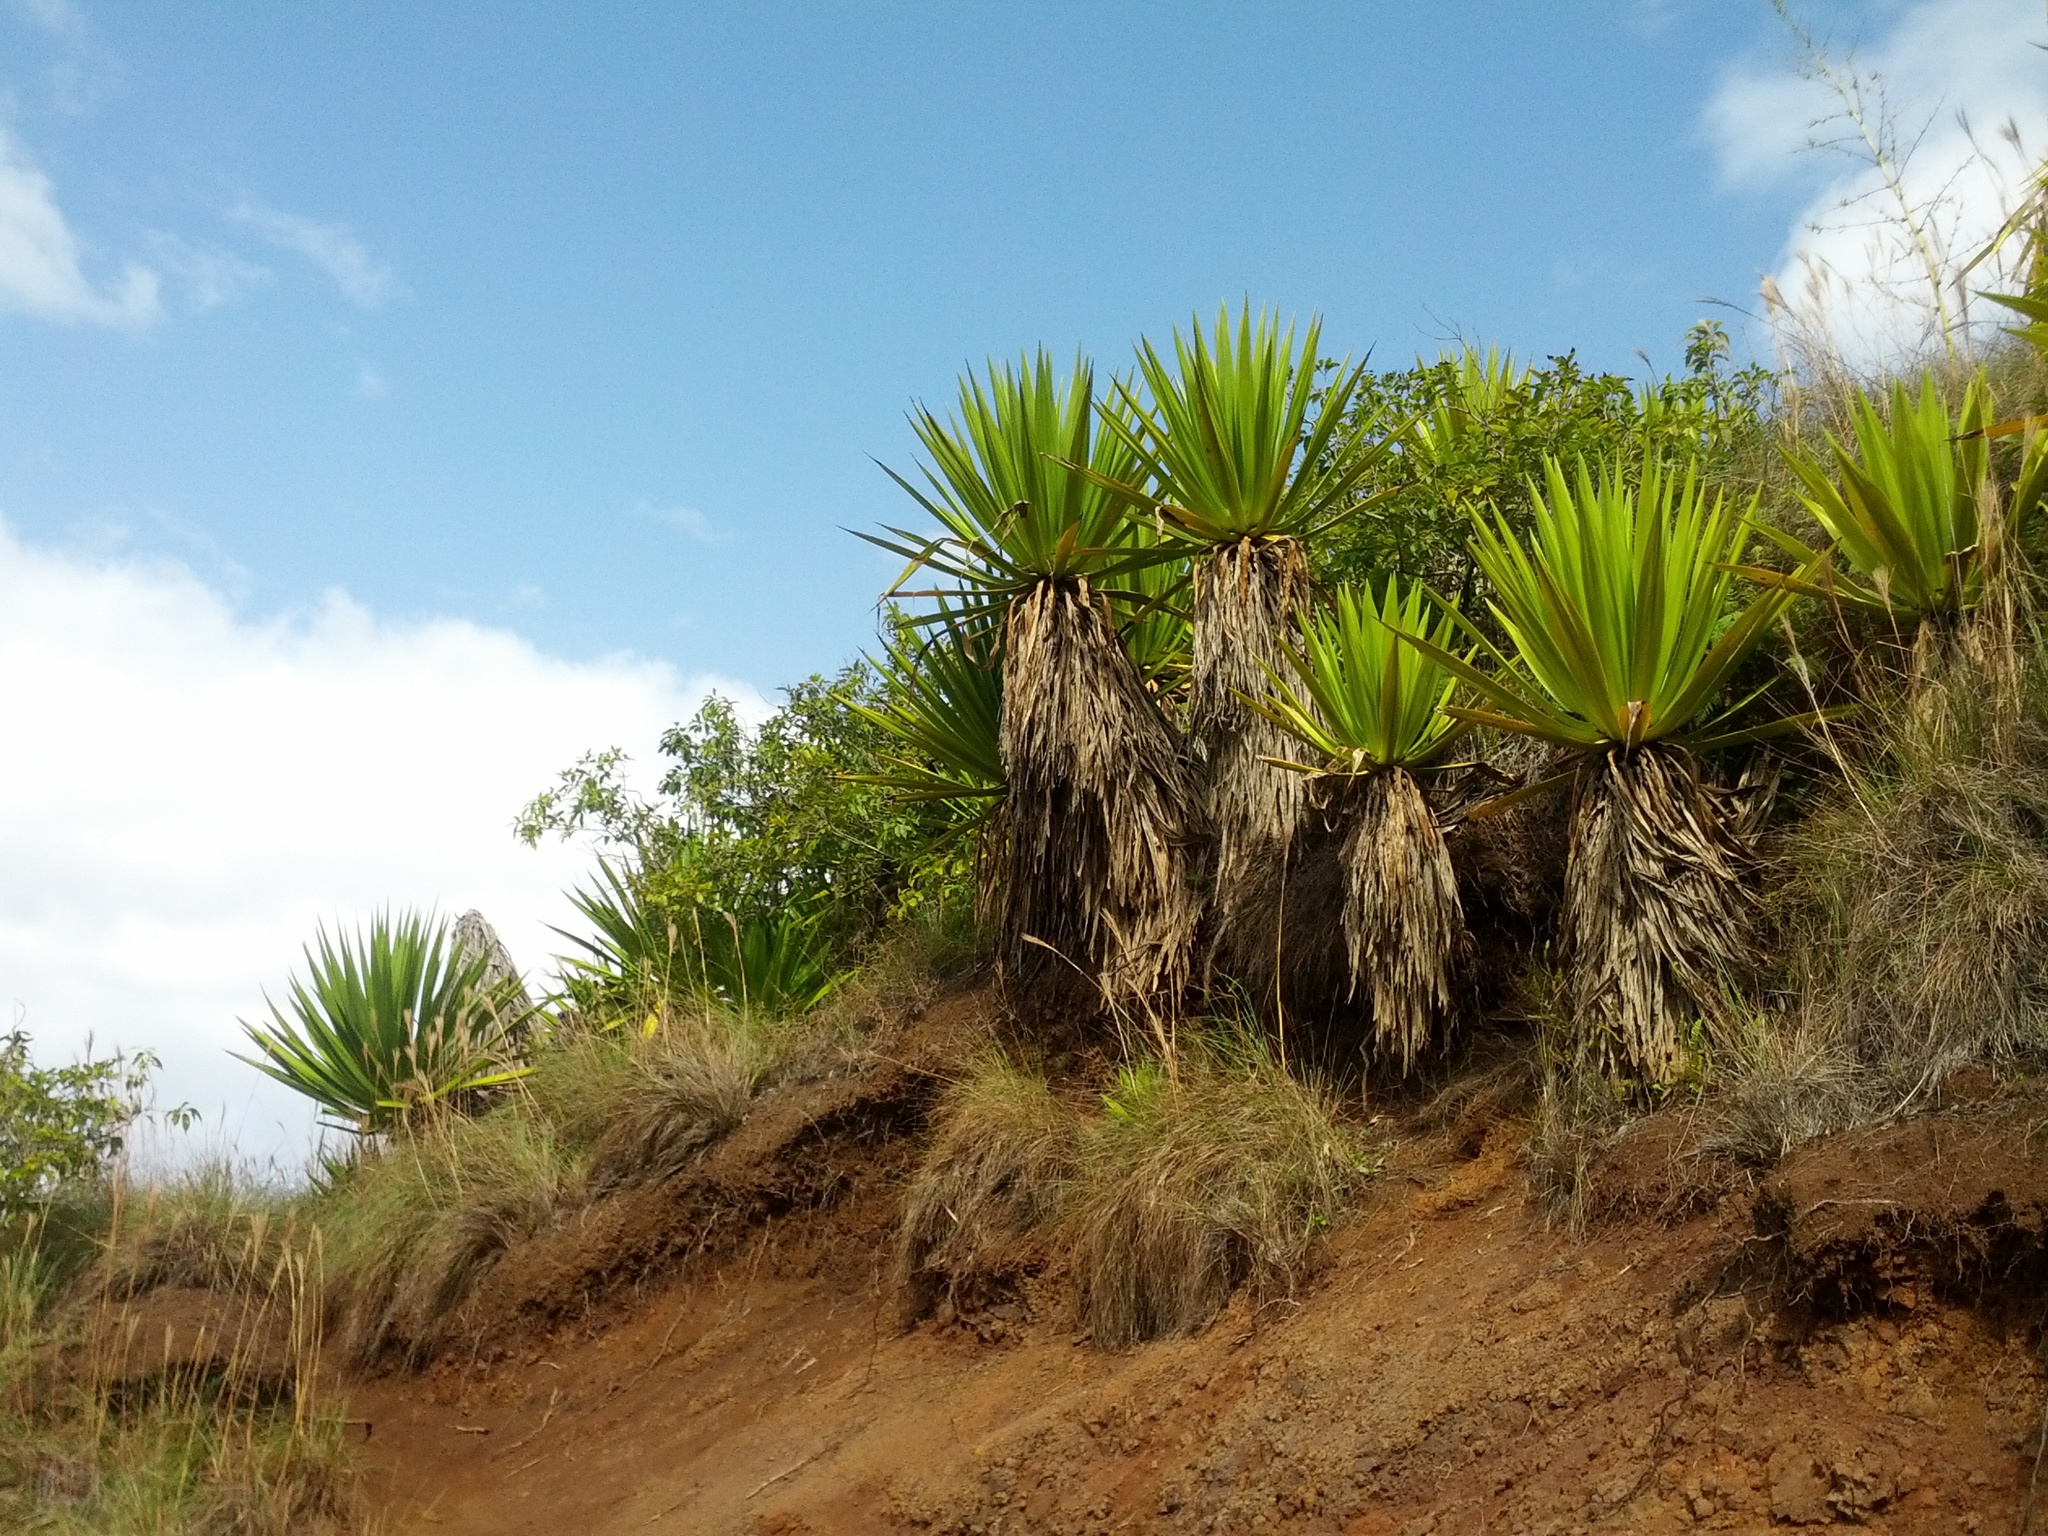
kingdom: Plantae
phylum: Tracheophyta
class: Liliopsida
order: Asparagales
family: Asparagaceae
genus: Furcraea
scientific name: Furcraea foetida
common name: Mauritius hemp
